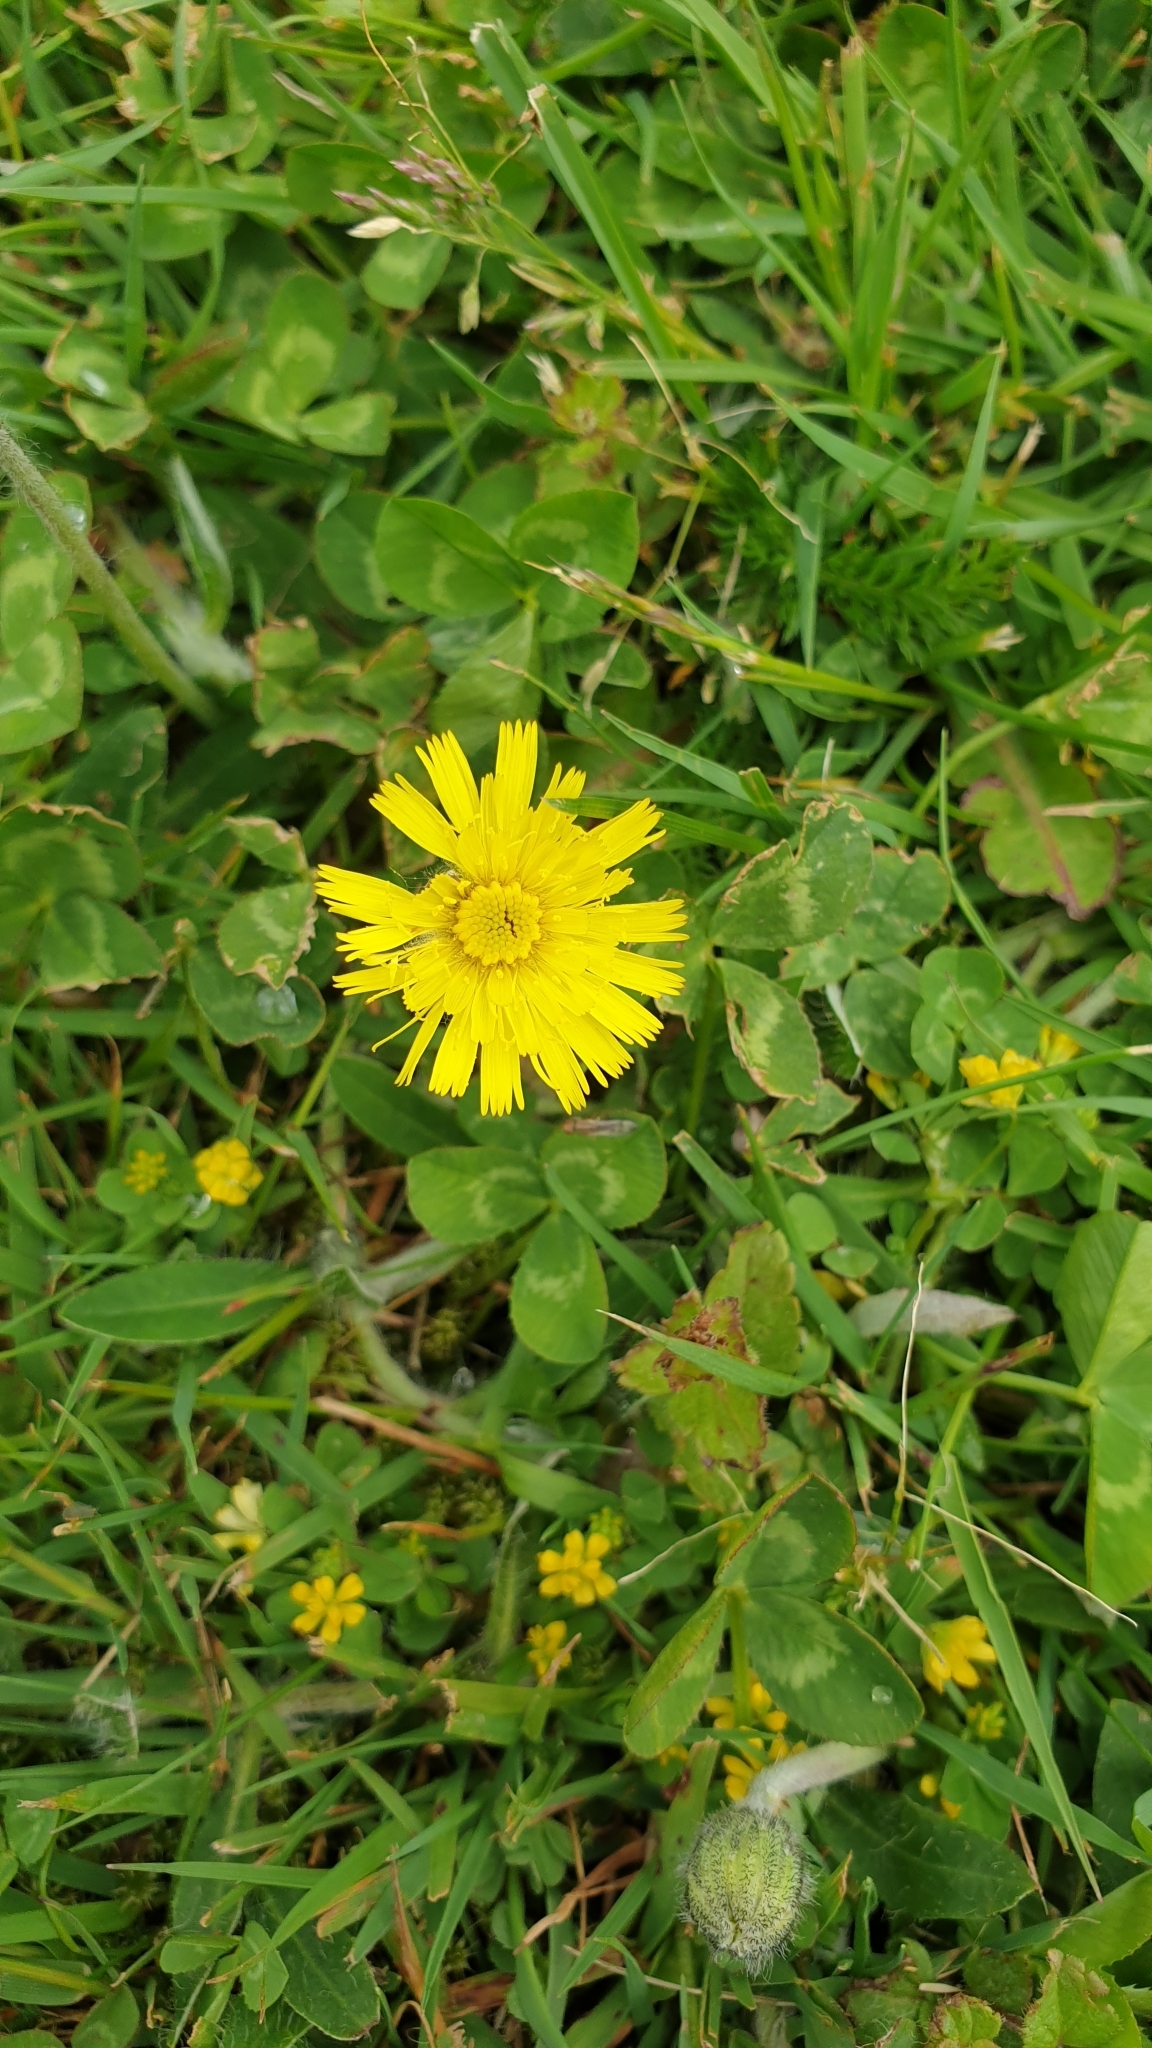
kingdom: Plantae
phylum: Tracheophyta
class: Magnoliopsida
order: Asterales
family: Asteraceae
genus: Pilosella
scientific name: Pilosella officinarum
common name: Mouse-ear hawkweed
